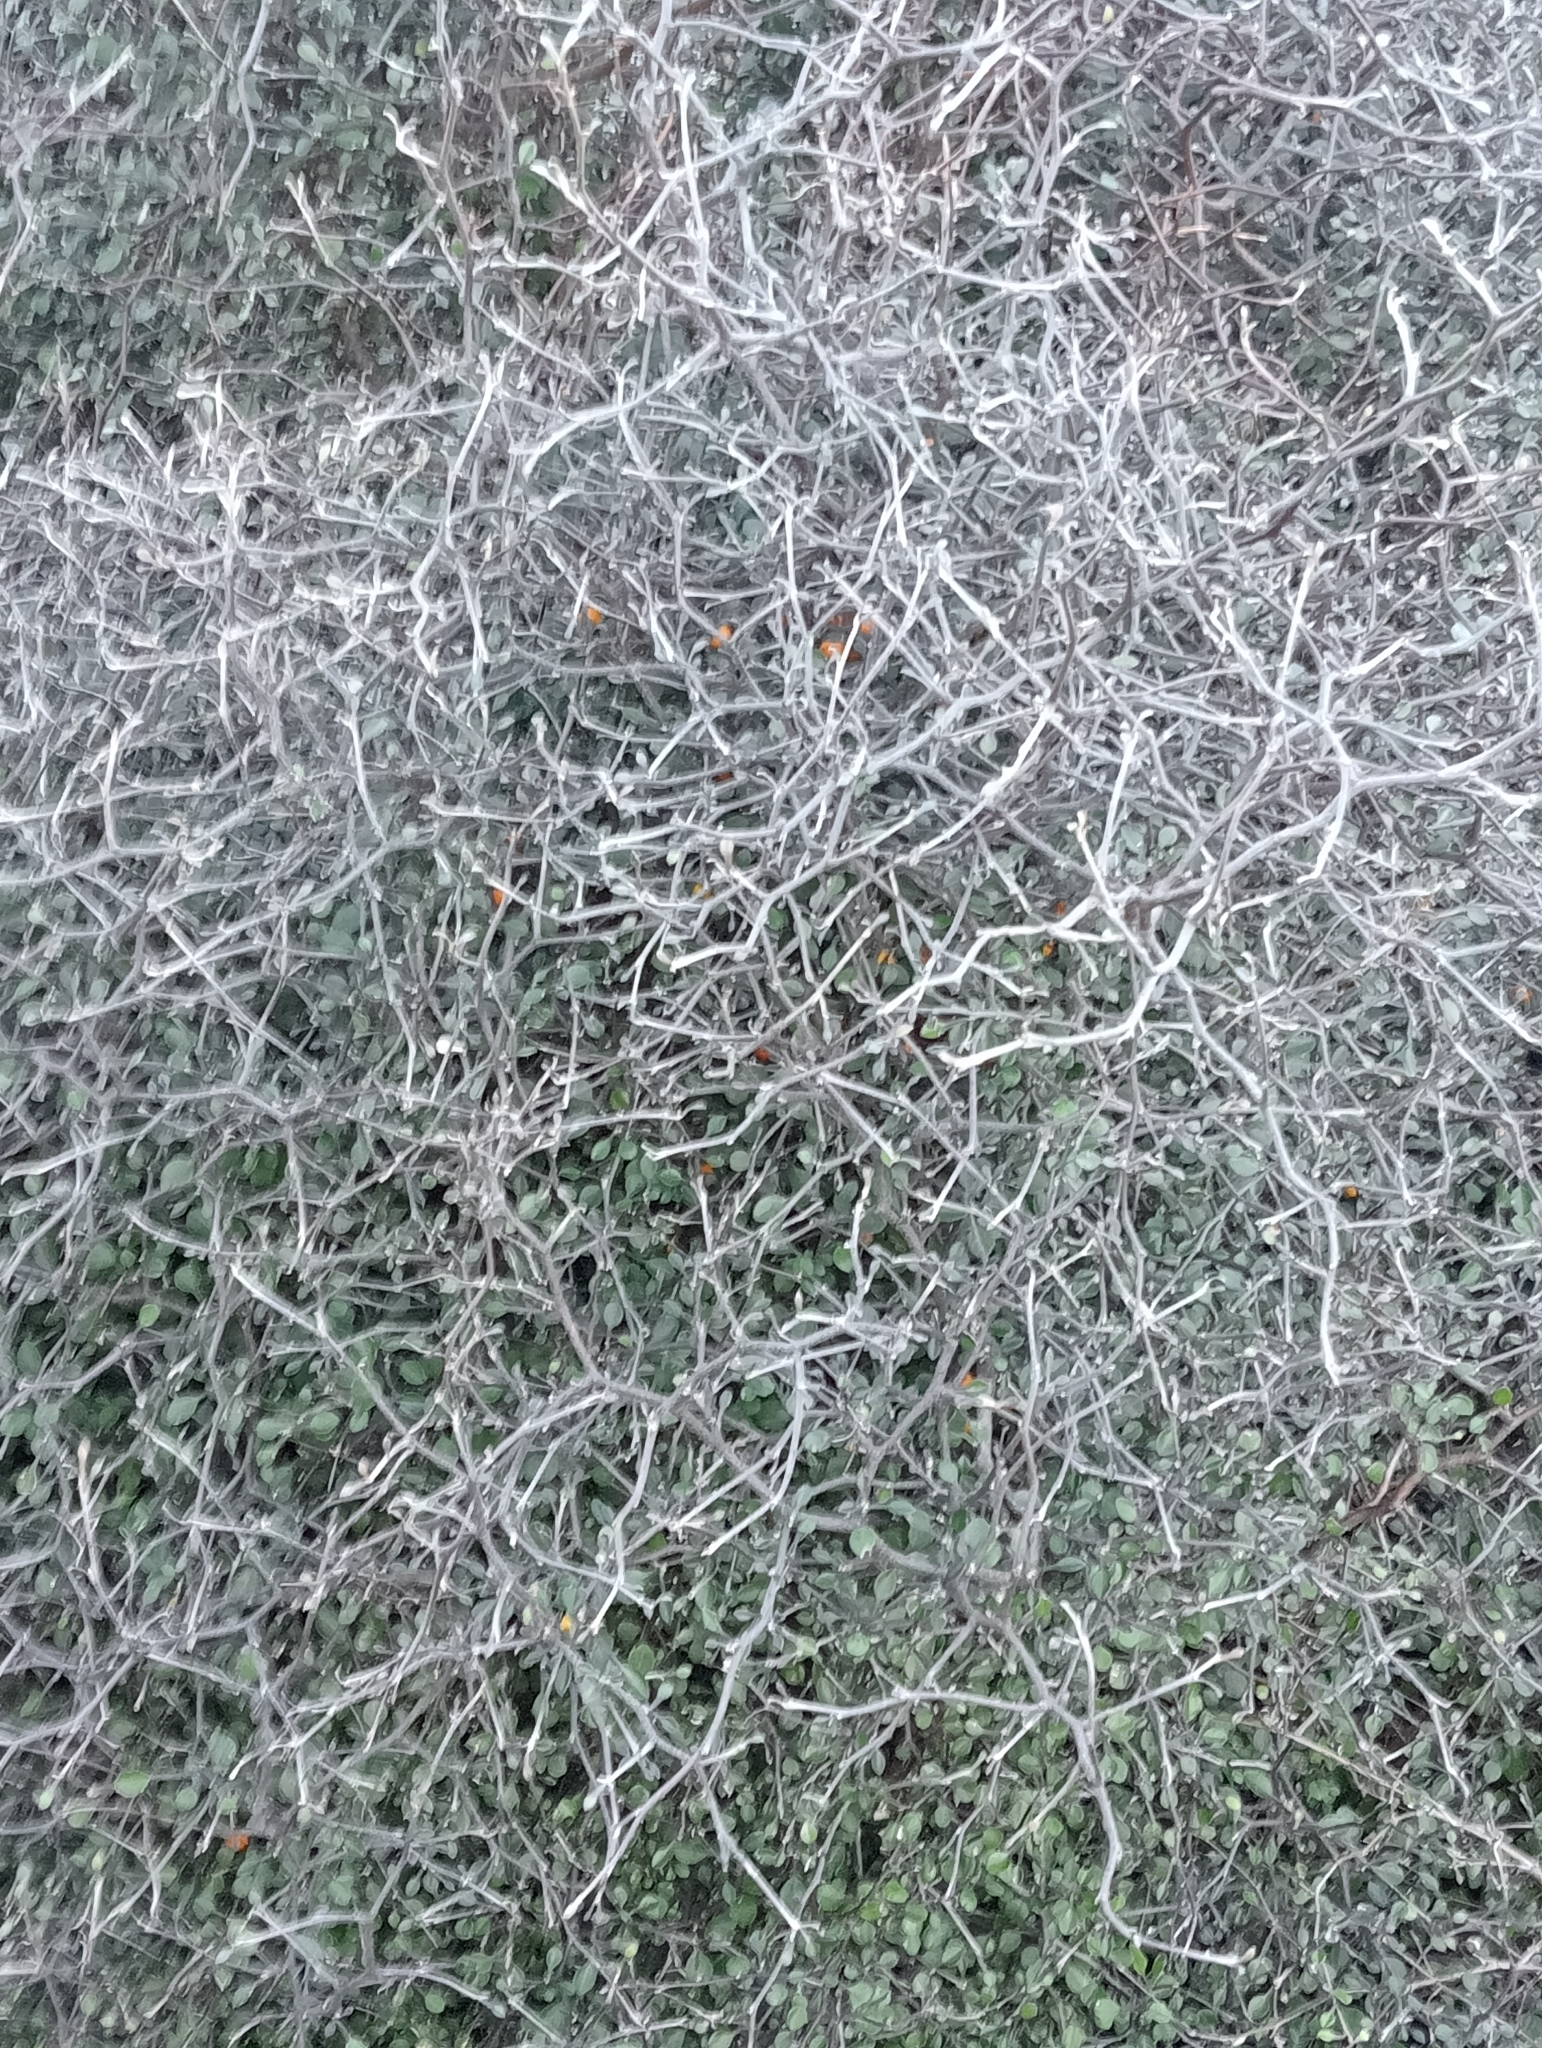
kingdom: Plantae
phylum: Tracheophyta
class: Magnoliopsida
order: Asterales
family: Argophyllaceae
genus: Corokia
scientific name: Corokia cotoneaster
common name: Wire nettingbush
